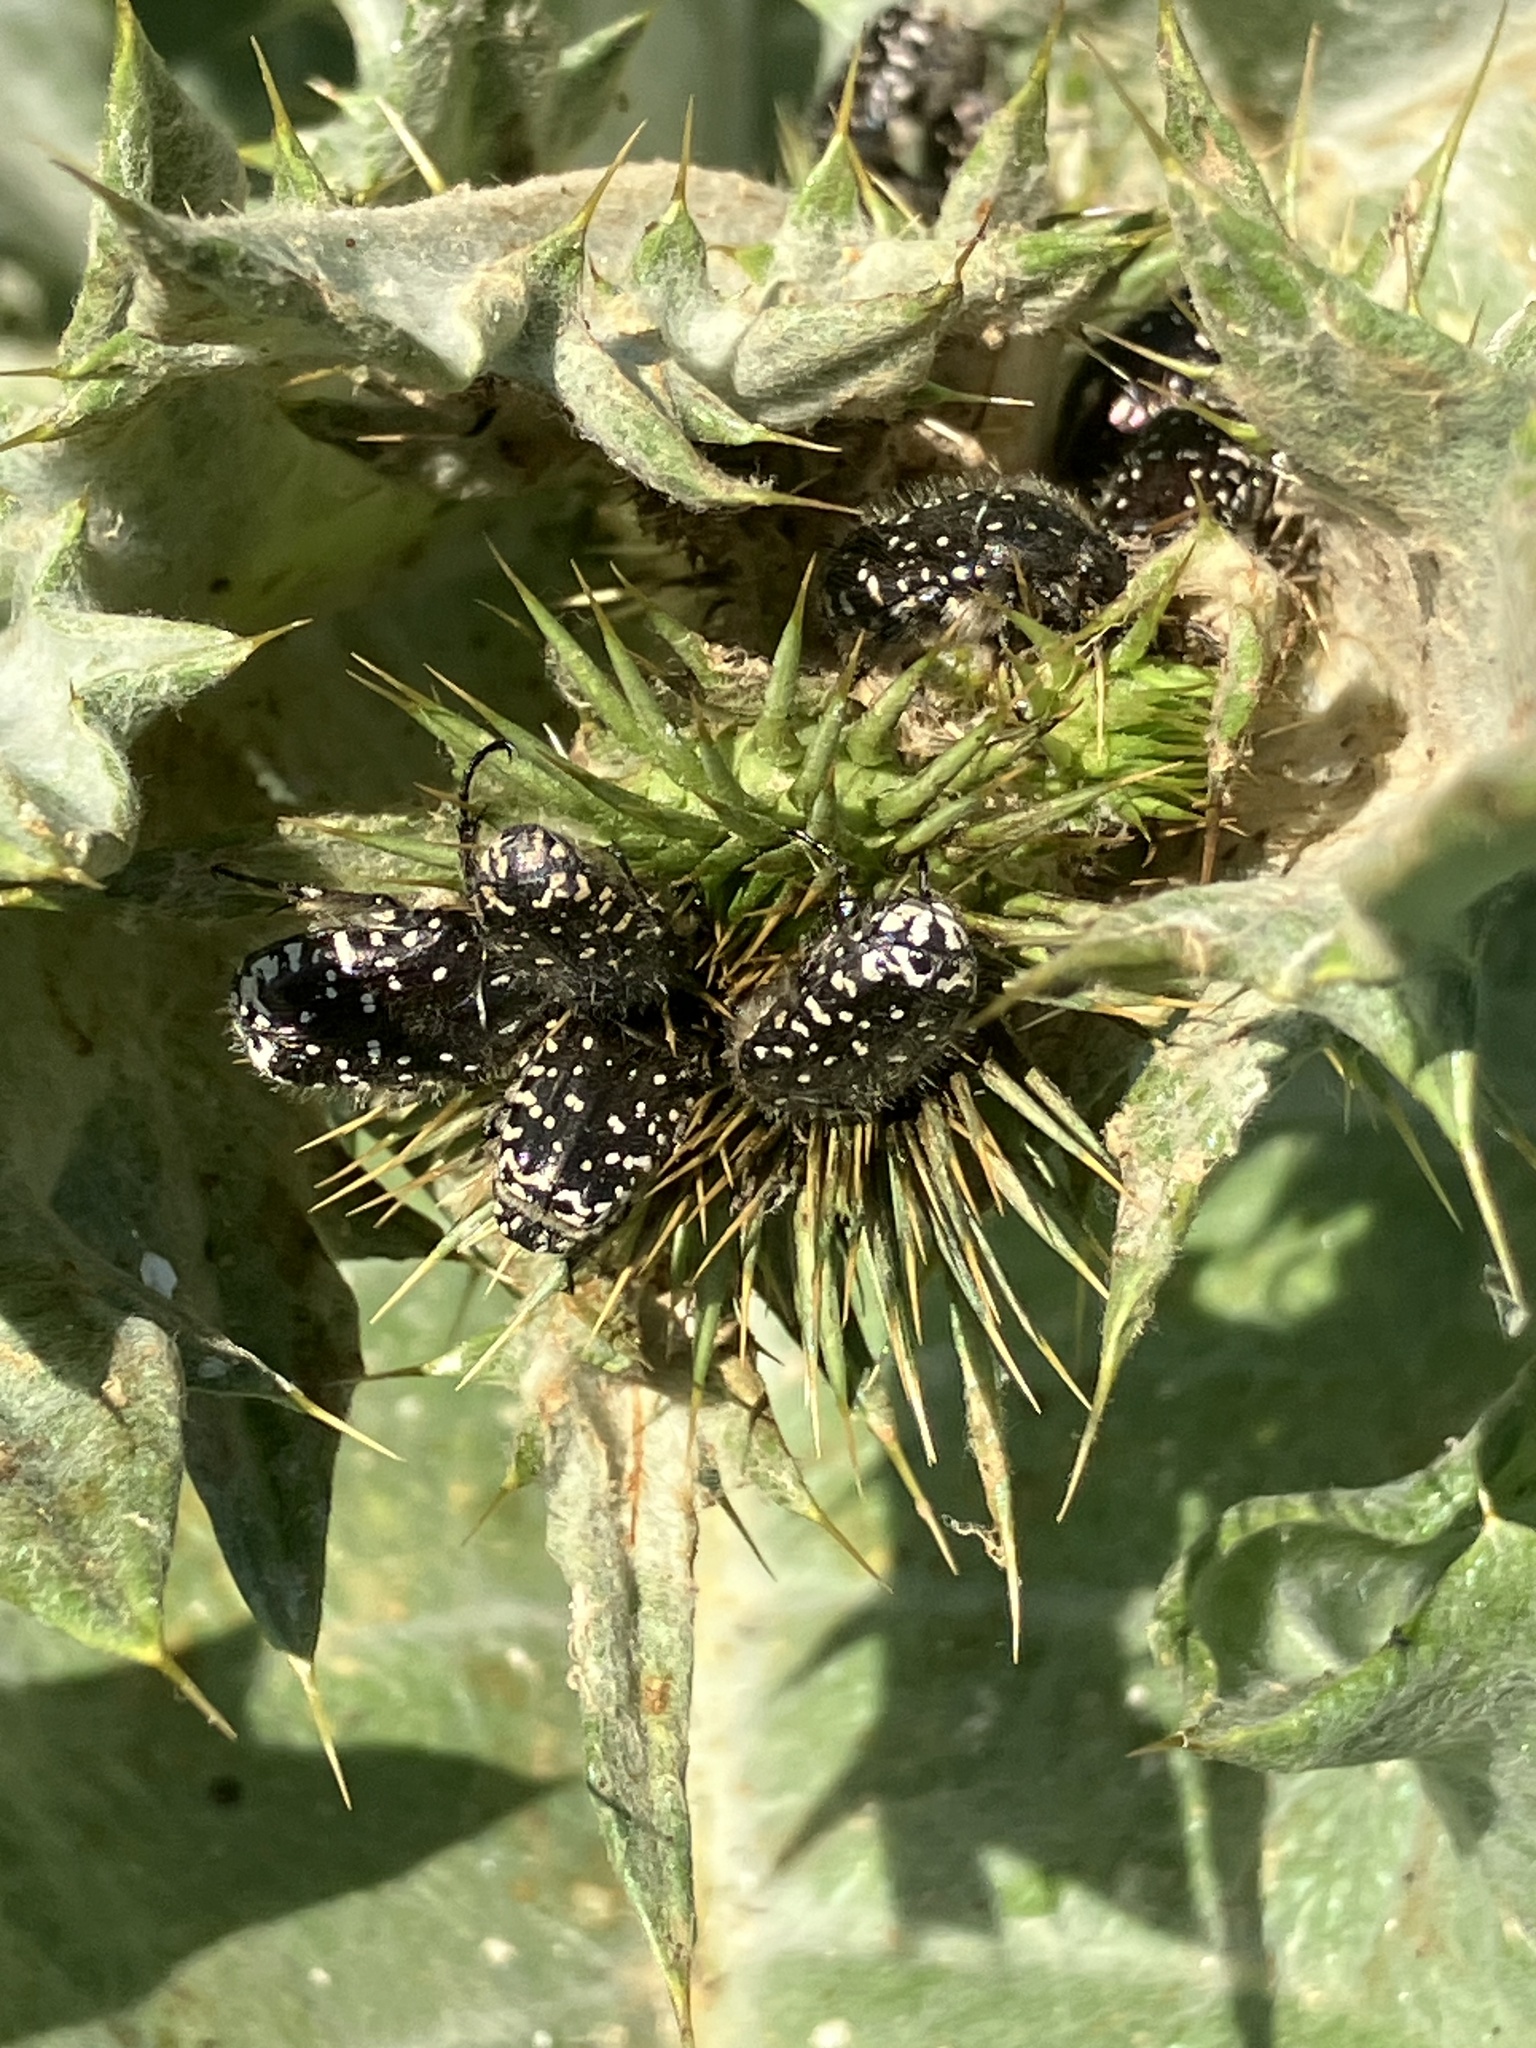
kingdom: Animalia
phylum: Arthropoda
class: Insecta
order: Coleoptera
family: Scarabaeidae
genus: Oxythyrea
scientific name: Oxythyrea funesta
